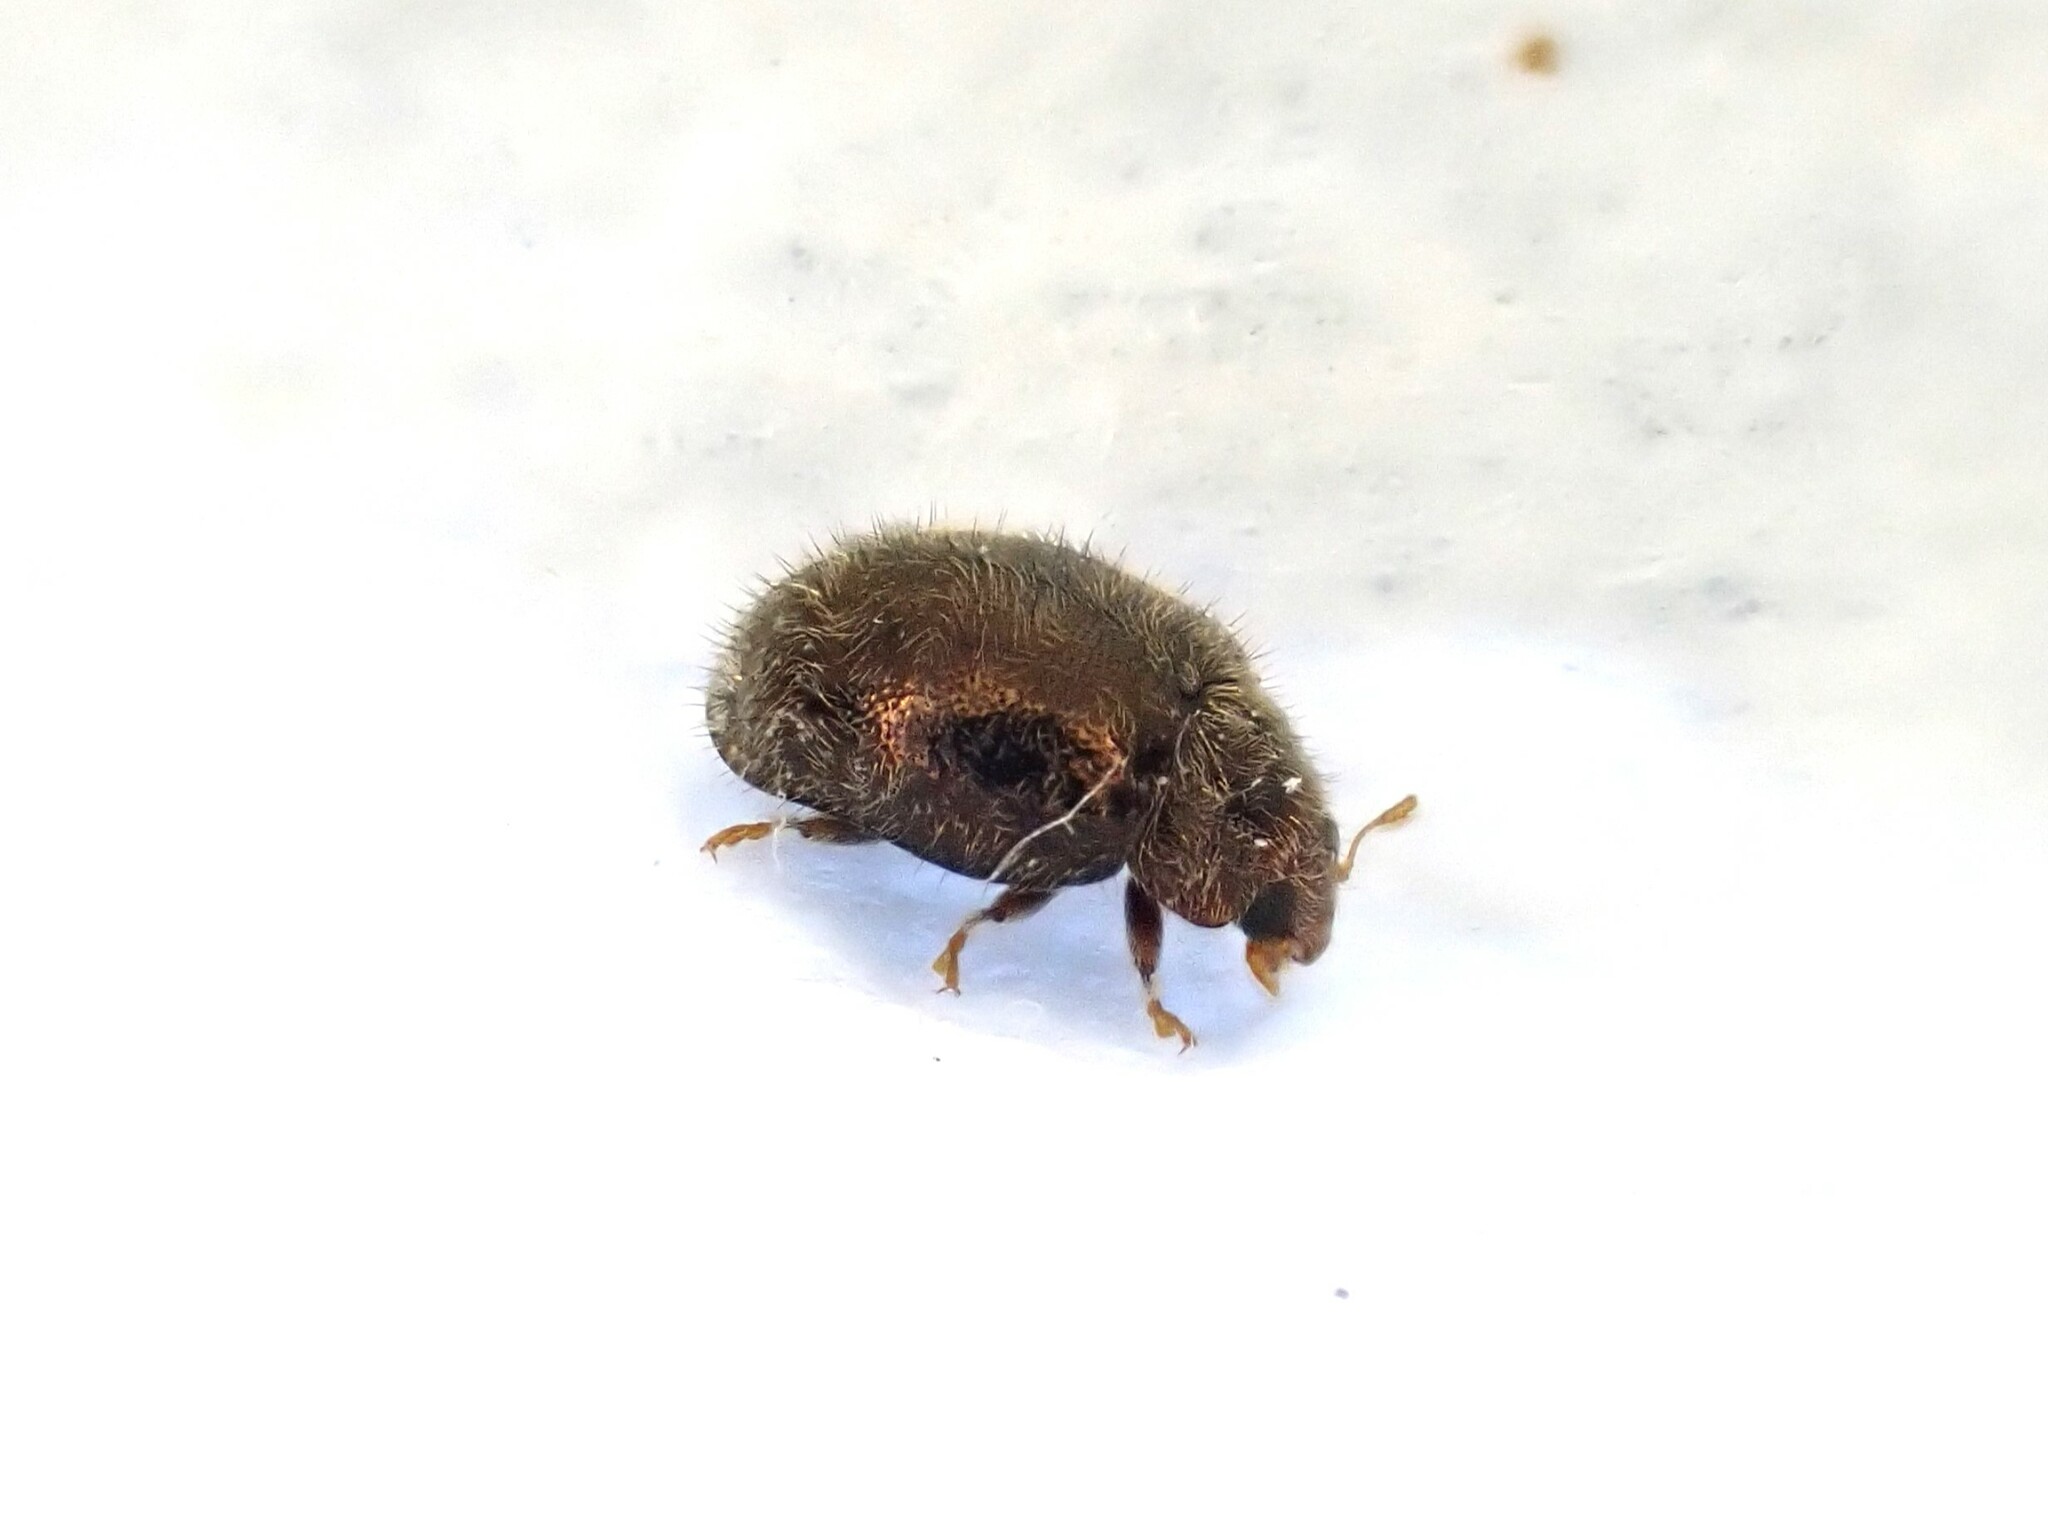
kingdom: Animalia
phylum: Arthropoda
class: Insecta
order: Coleoptera
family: Coccinellidae
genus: Rhyzobius
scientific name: Rhyzobius fagus
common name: Lady beetle
